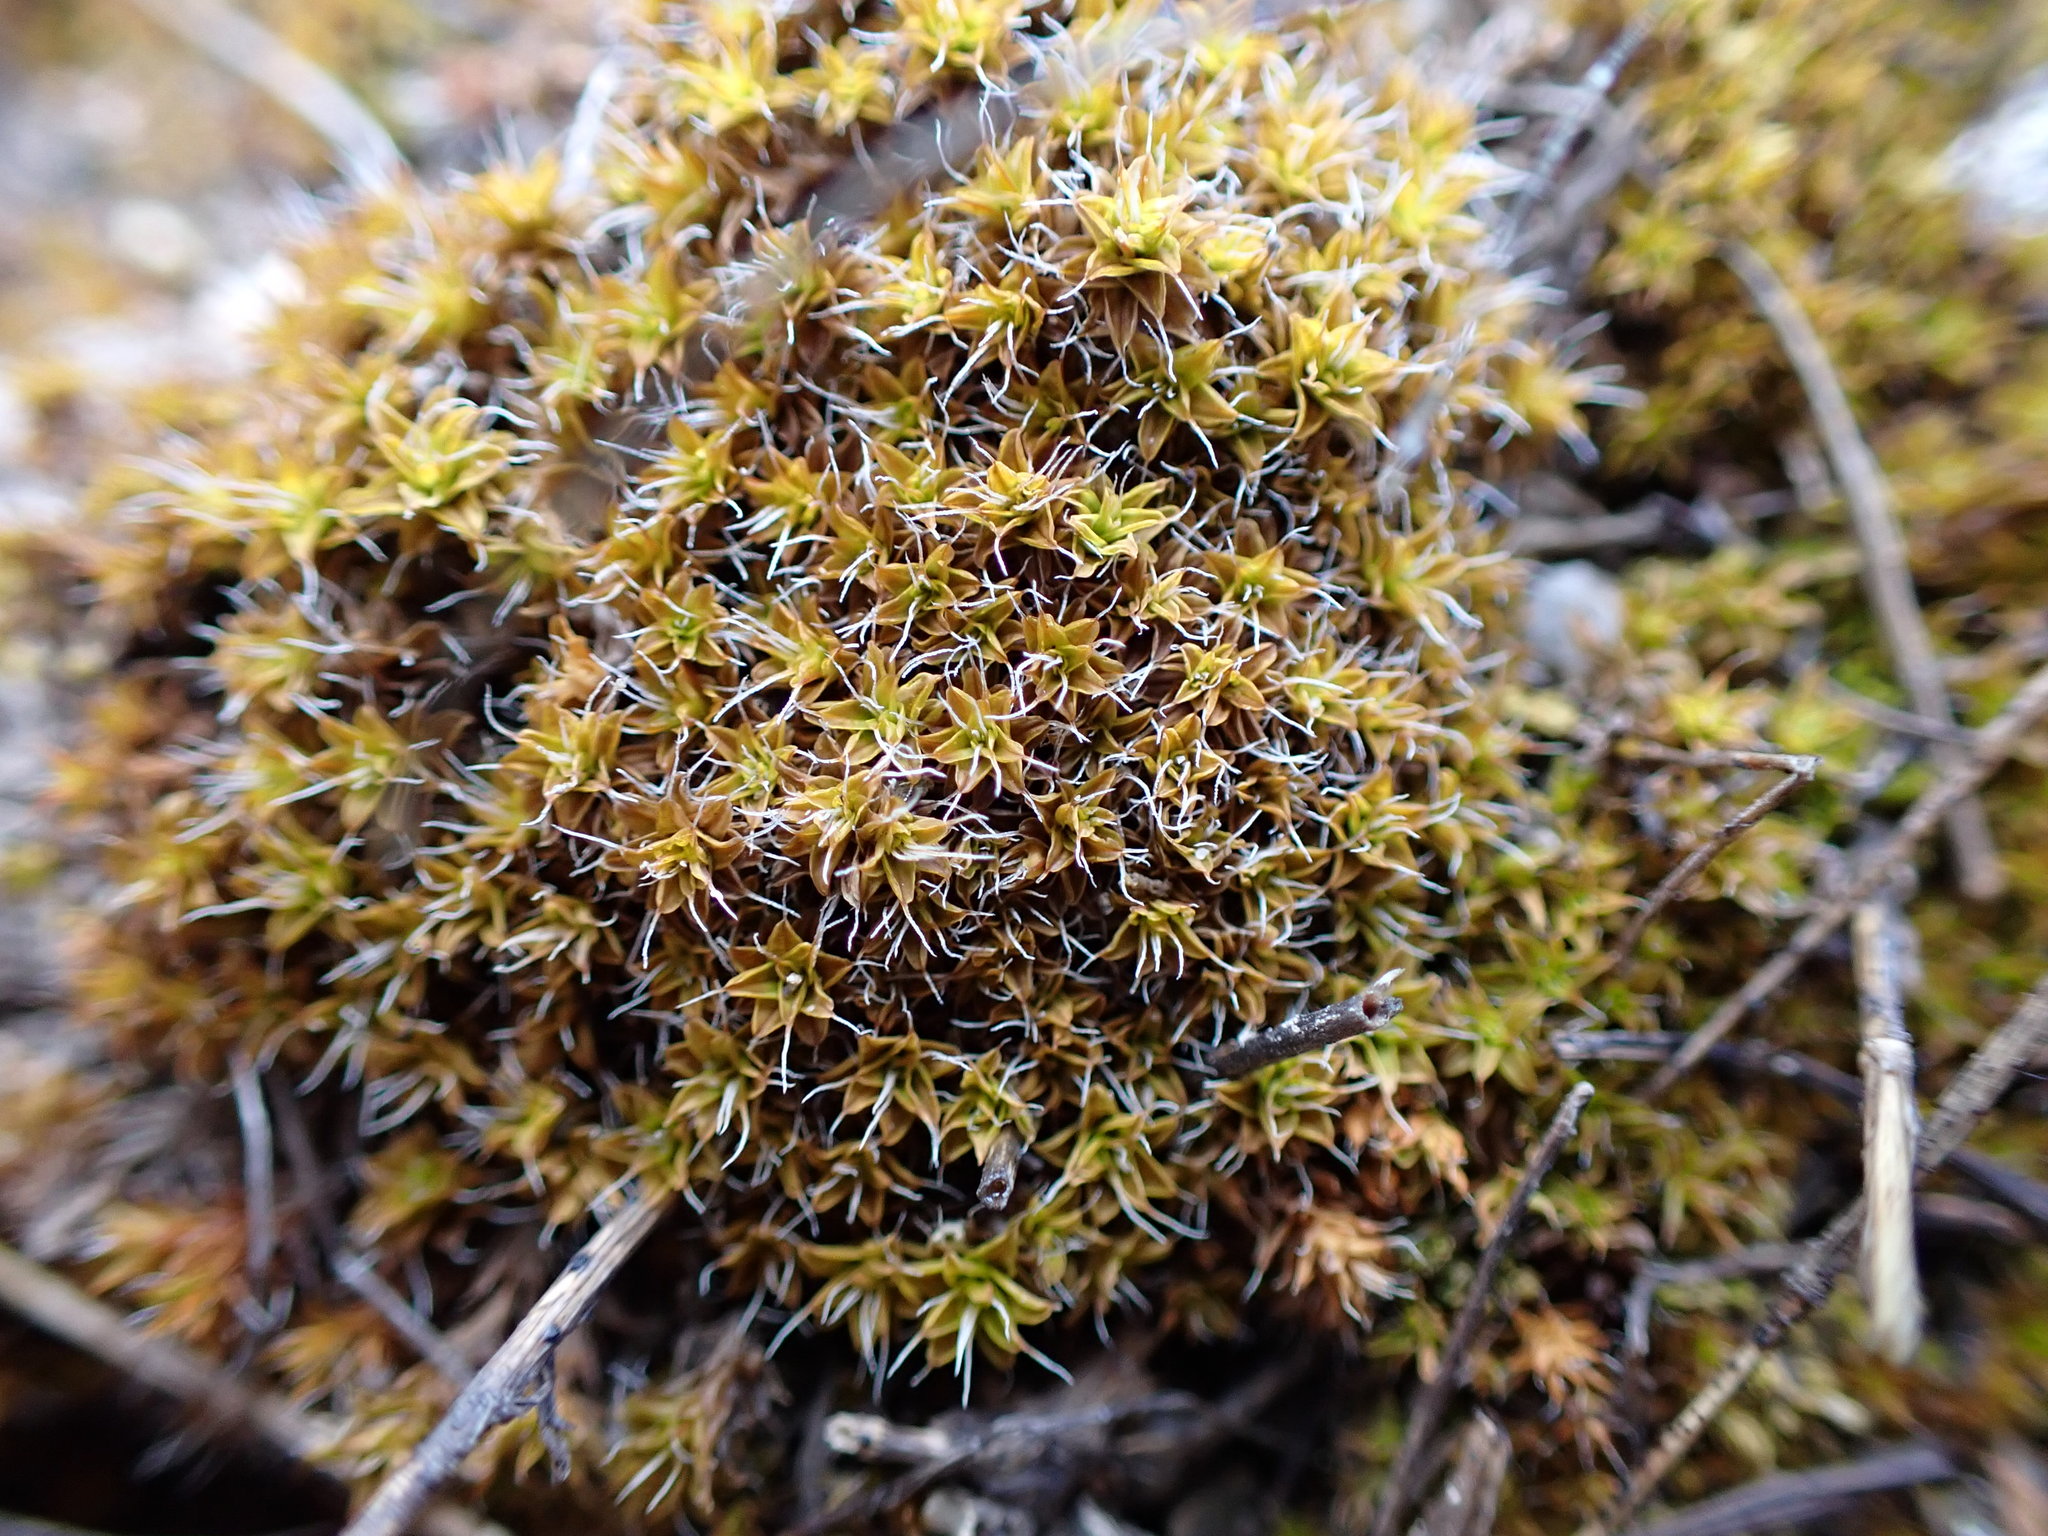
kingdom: Plantae
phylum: Bryophyta
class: Bryopsida
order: Pottiales
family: Pottiaceae
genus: Syntrichia
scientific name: Syntrichia ruralis
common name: Sidewalk screw moss
